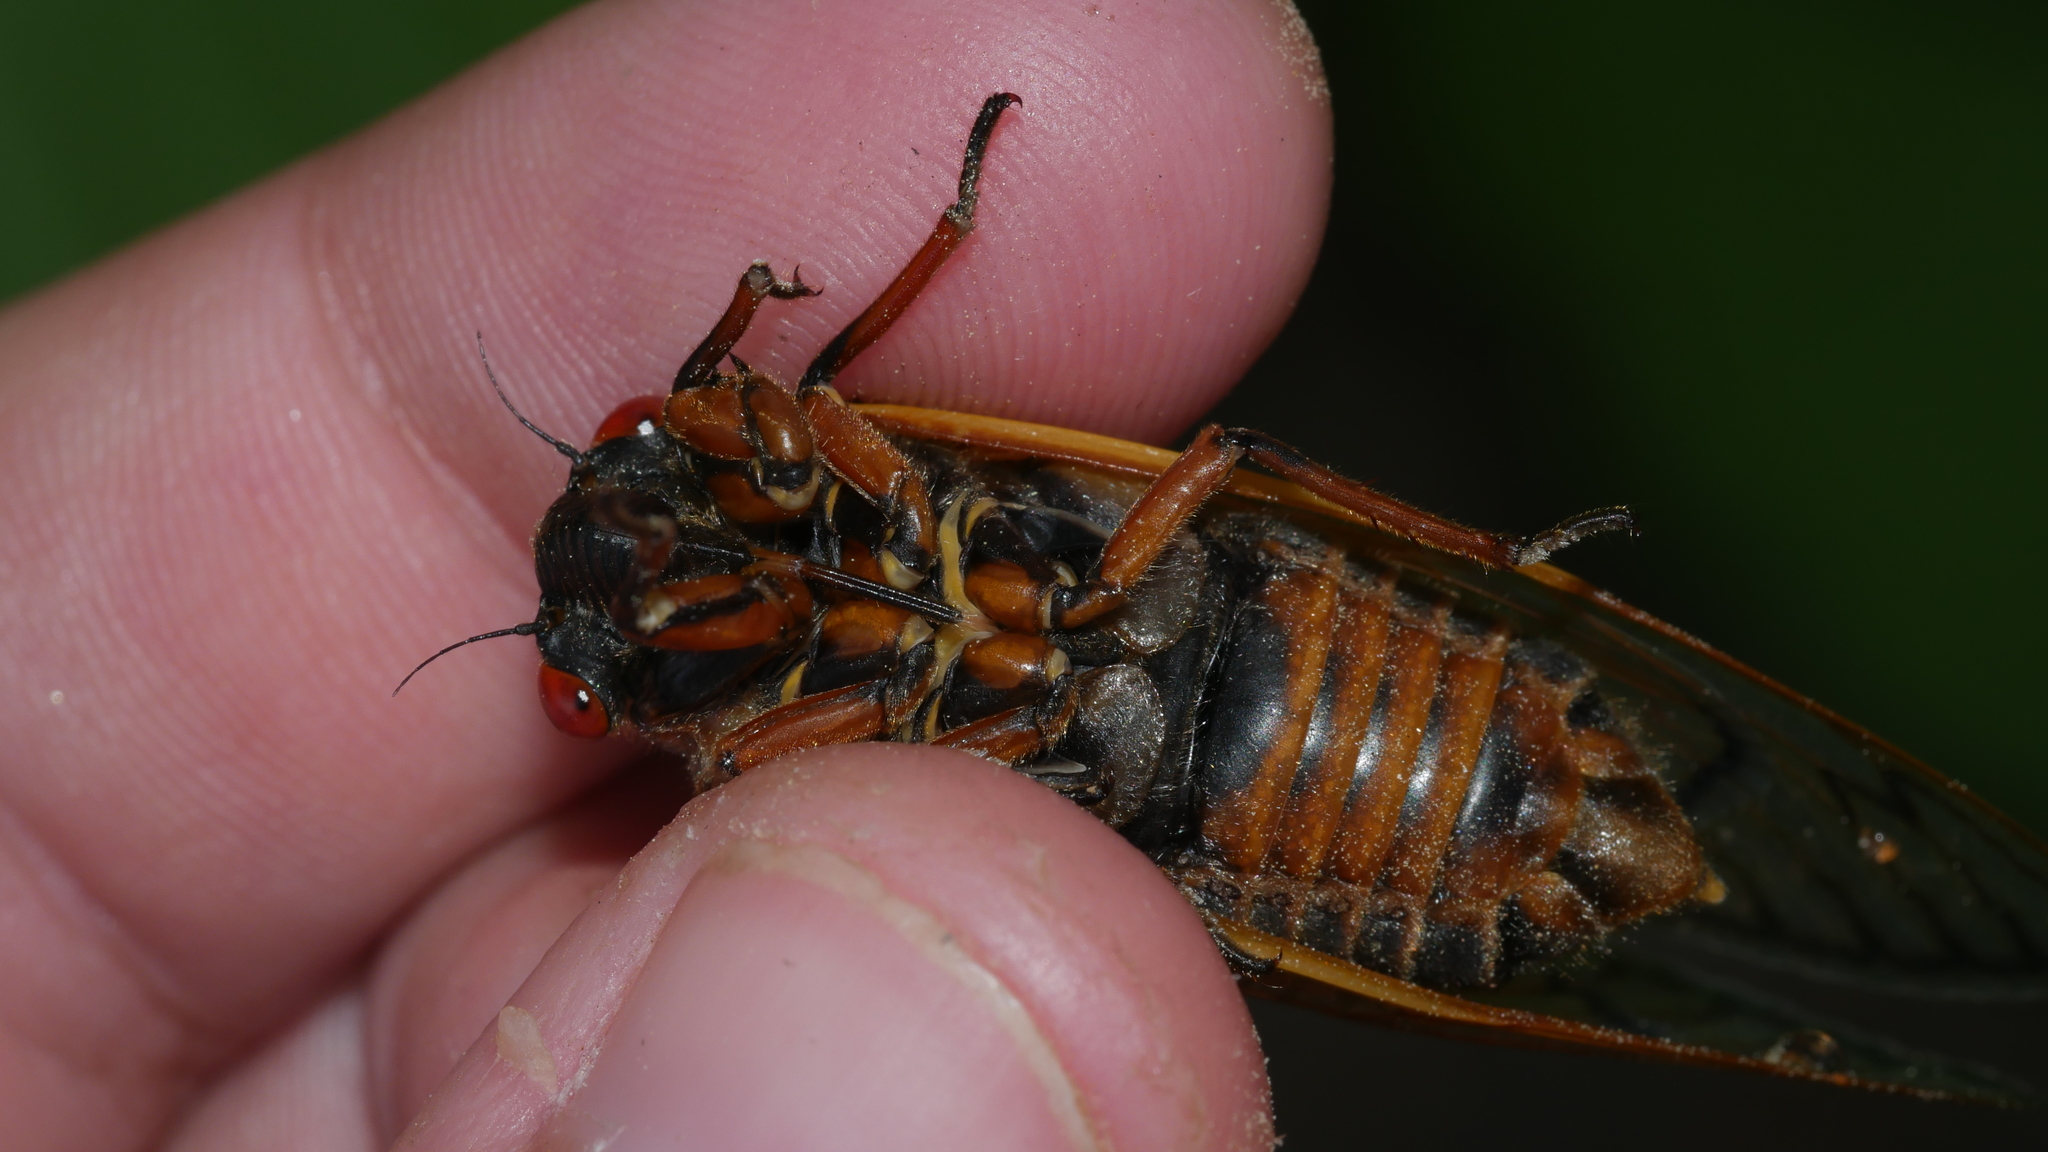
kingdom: Animalia
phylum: Arthropoda
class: Insecta
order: Hemiptera
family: Cicadidae
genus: Magicicada
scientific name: Magicicada septendecim
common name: Periodical cicada
